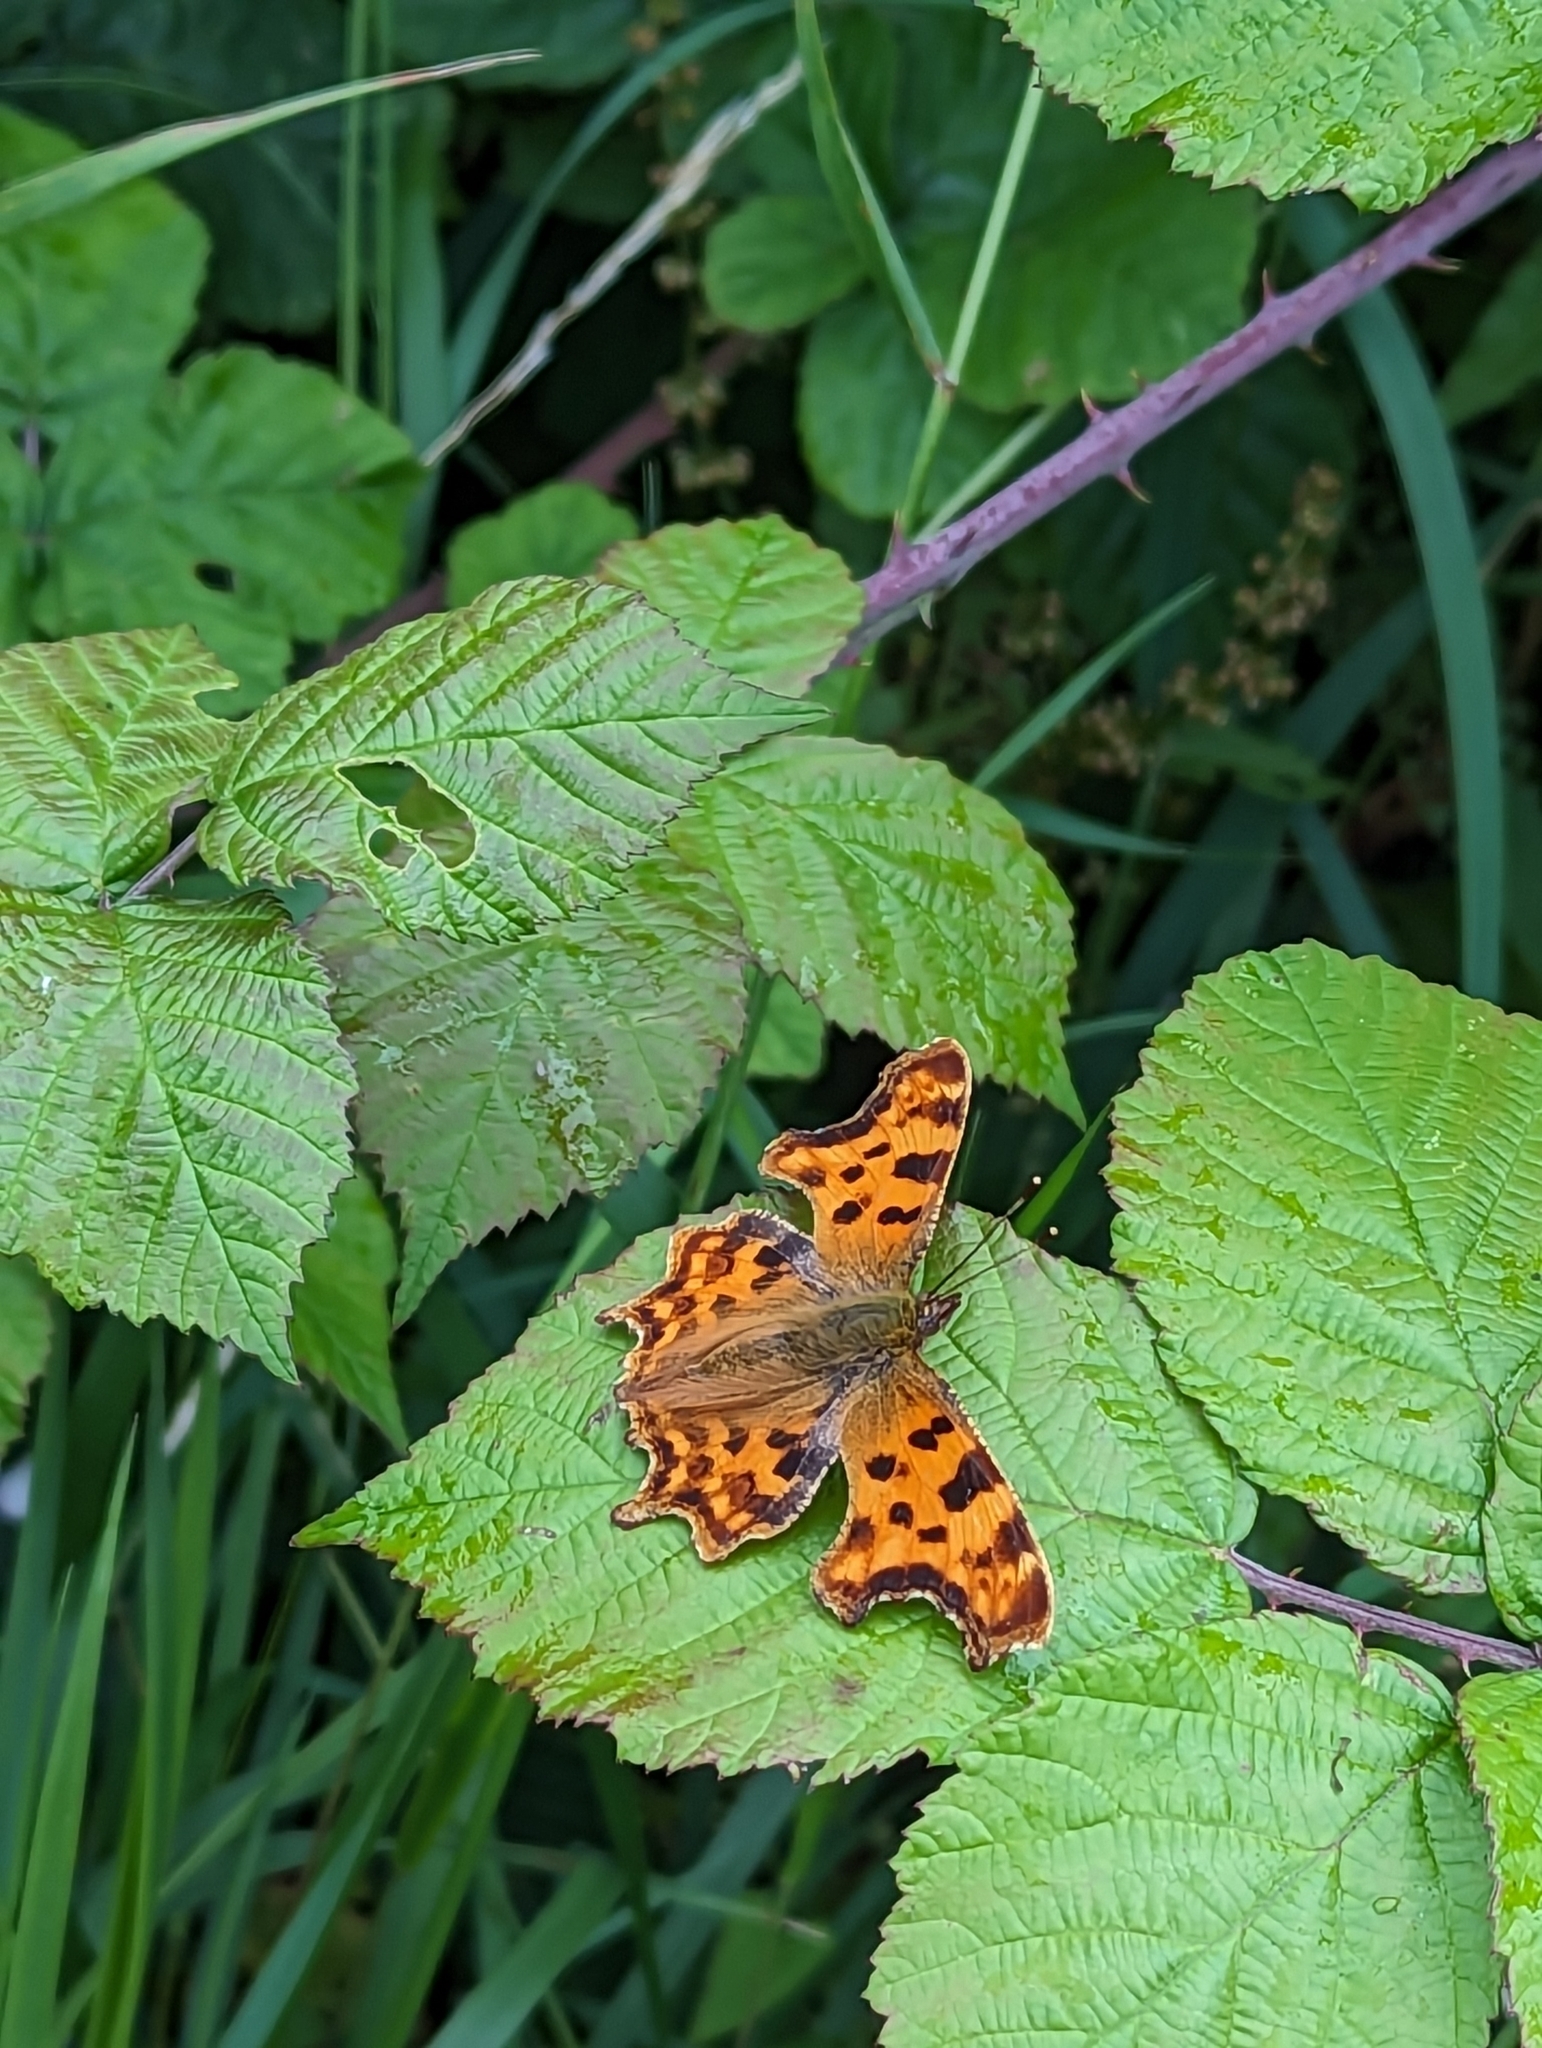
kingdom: Animalia
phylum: Arthropoda
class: Insecta
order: Lepidoptera
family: Nymphalidae
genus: Polygonia
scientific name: Polygonia c-album
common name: Comma
